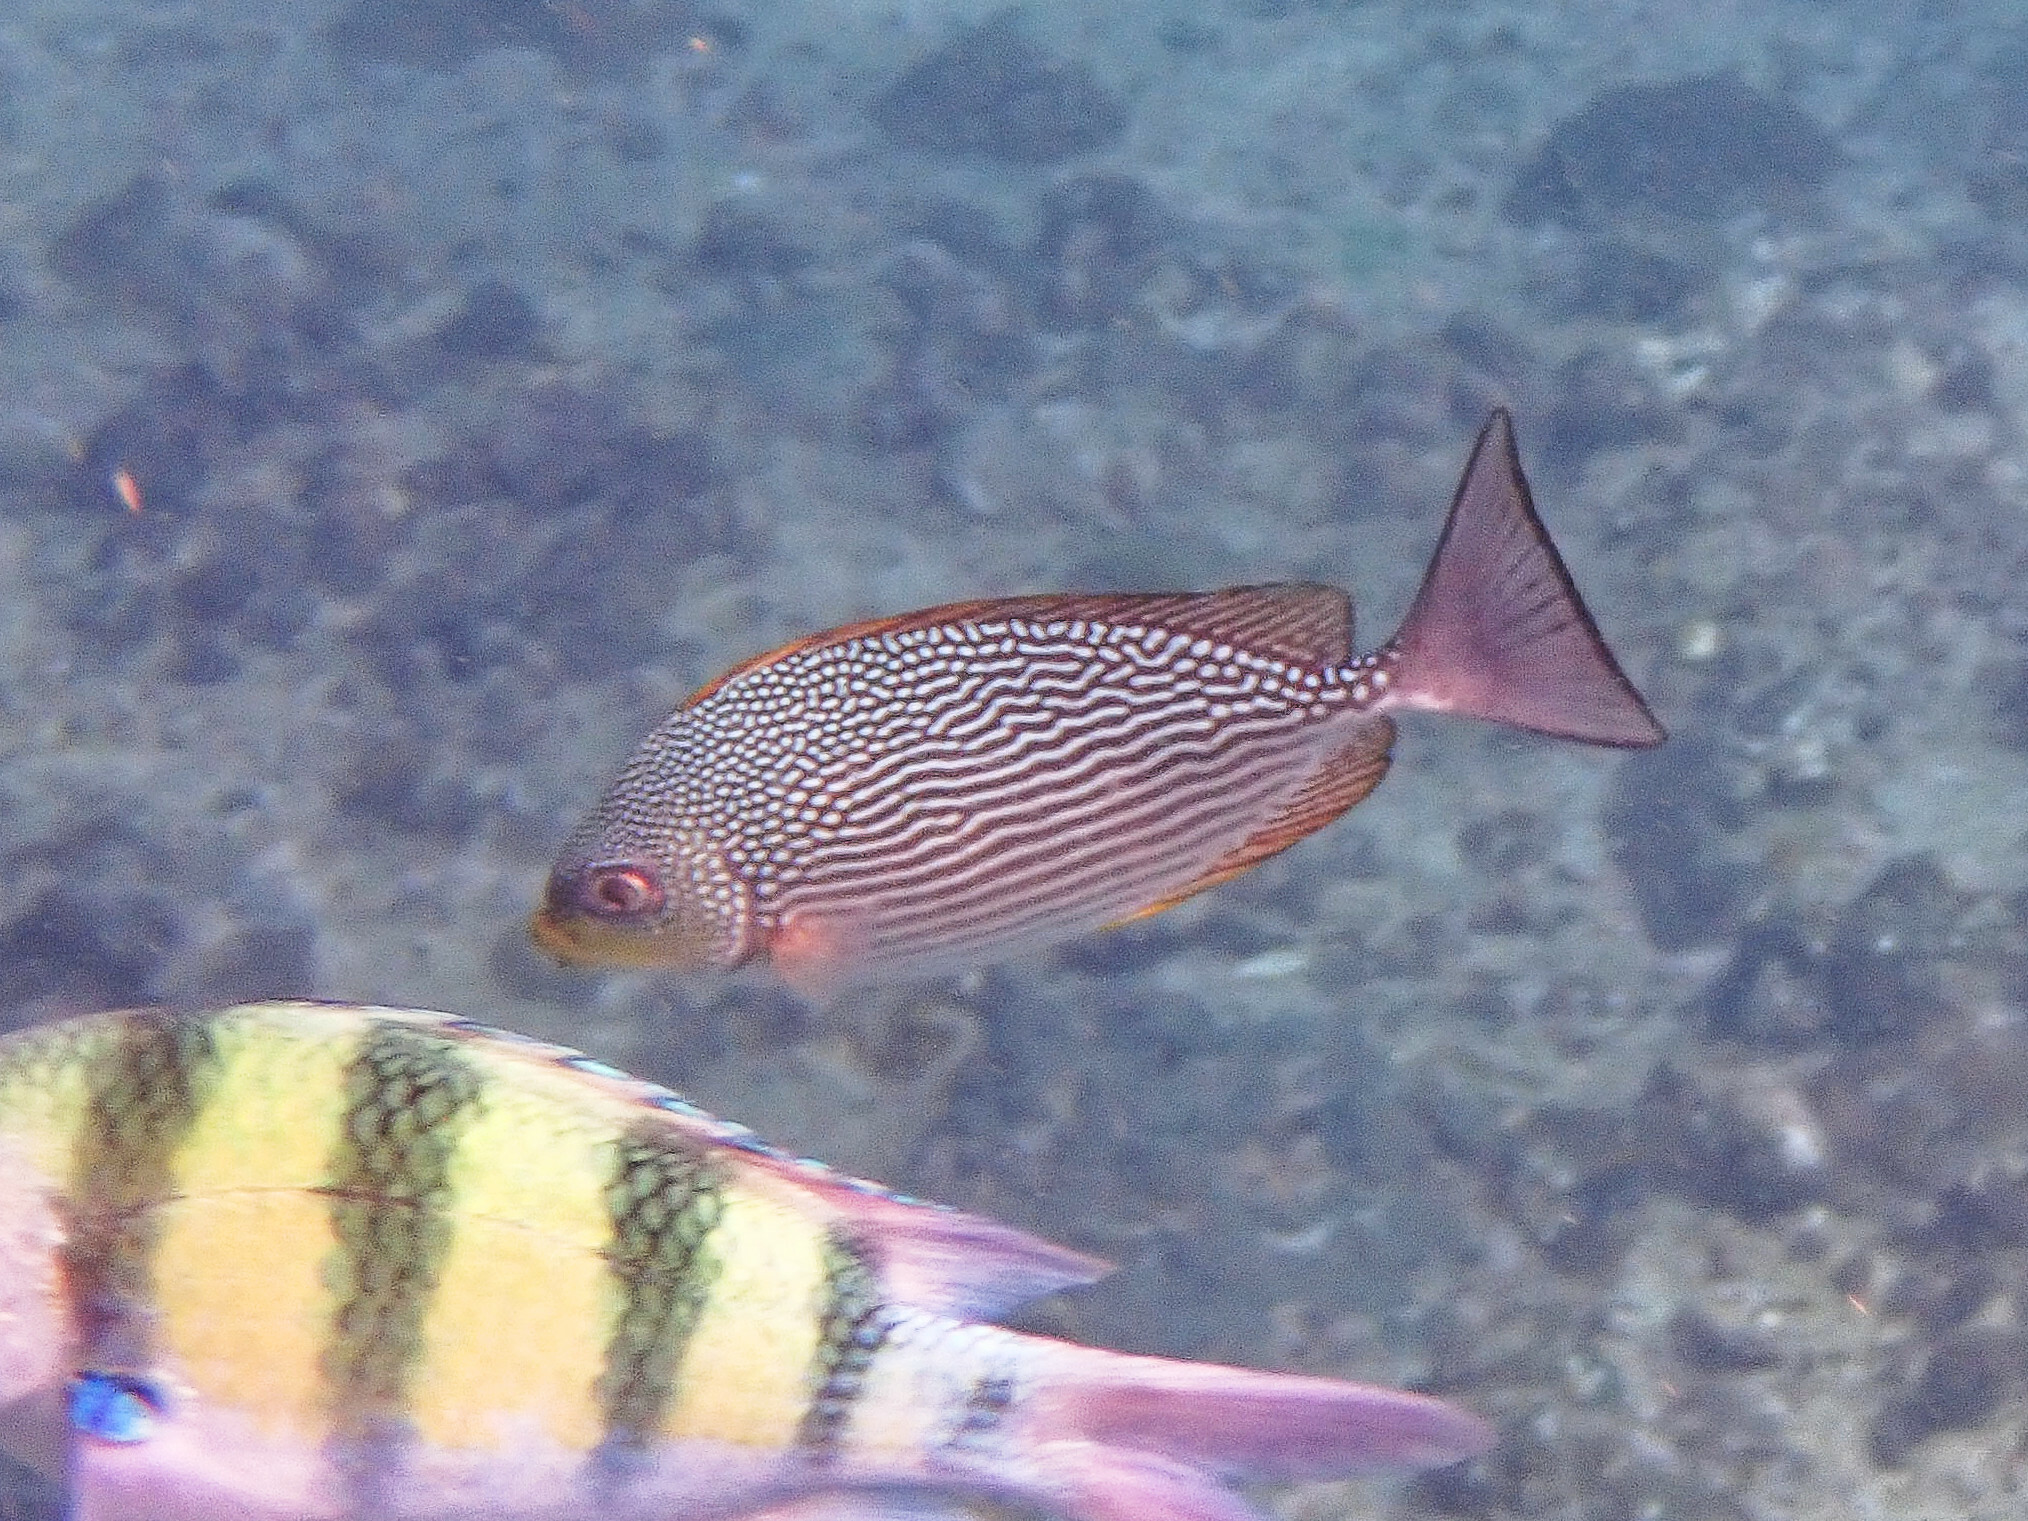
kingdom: Animalia
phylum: Chordata
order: Perciformes
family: Siganidae
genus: Siganus
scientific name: Siganus javus
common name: Java rabbitfish
